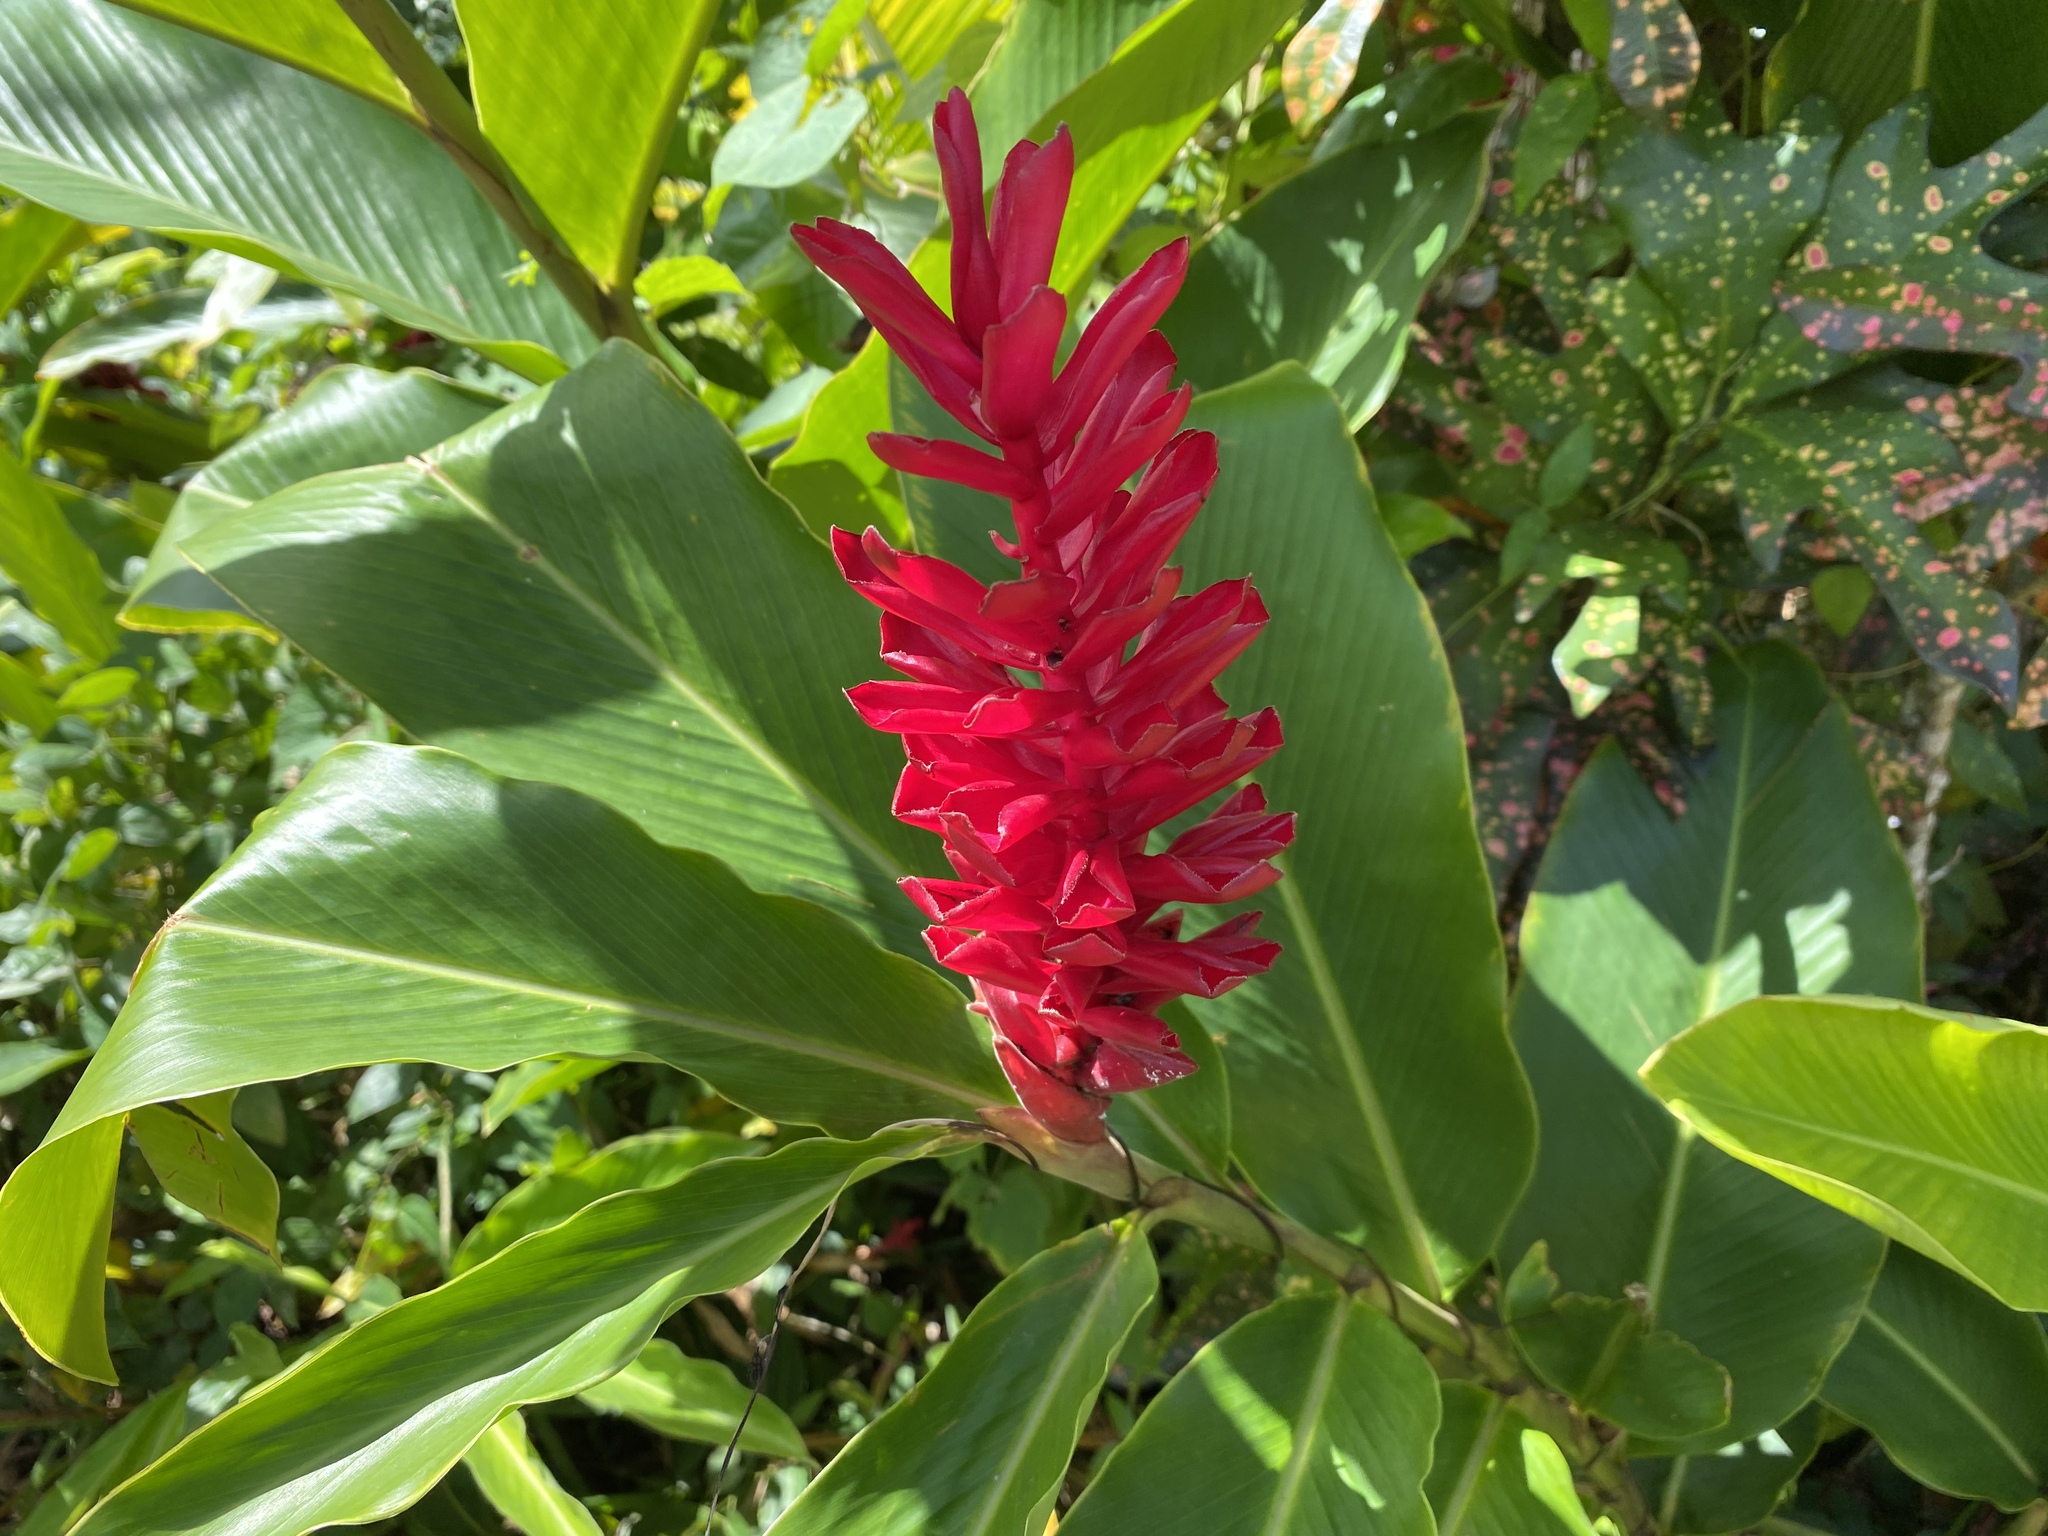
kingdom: Plantae
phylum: Tracheophyta
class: Liliopsida
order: Zingiberales
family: Zingiberaceae
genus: Alpinia
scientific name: Alpinia purpurata
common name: Red ginger
